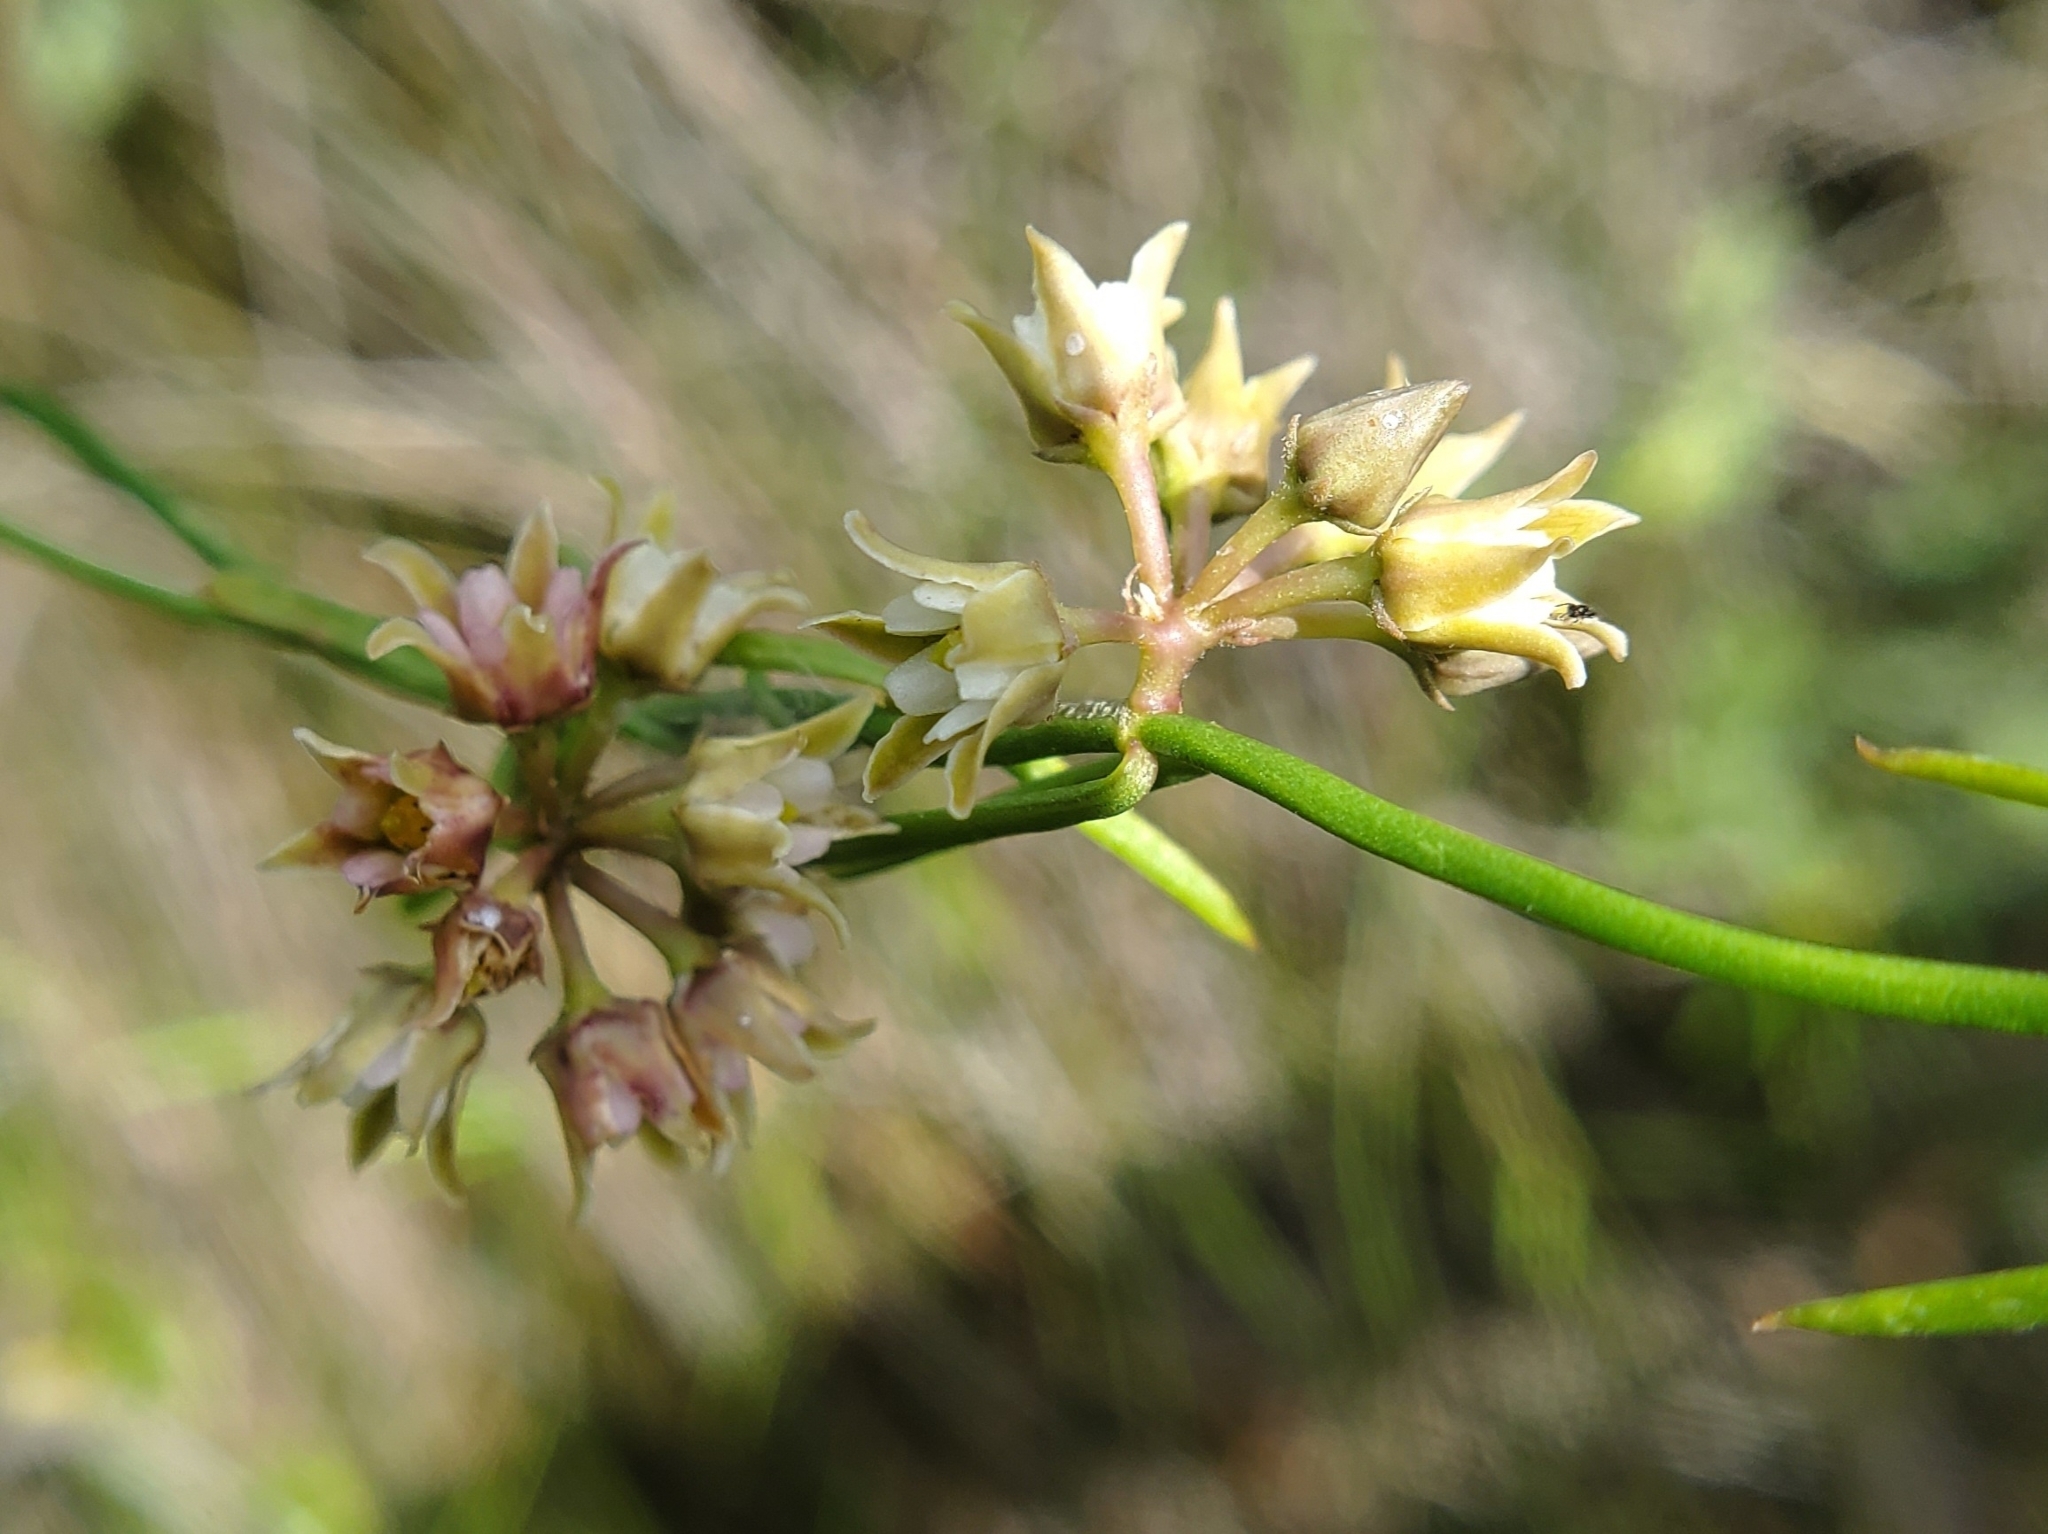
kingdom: Plantae
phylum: Tracheophyta
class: Magnoliopsida
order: Gentianales
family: Apocynaceae
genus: Pattalias
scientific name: Pattalias
